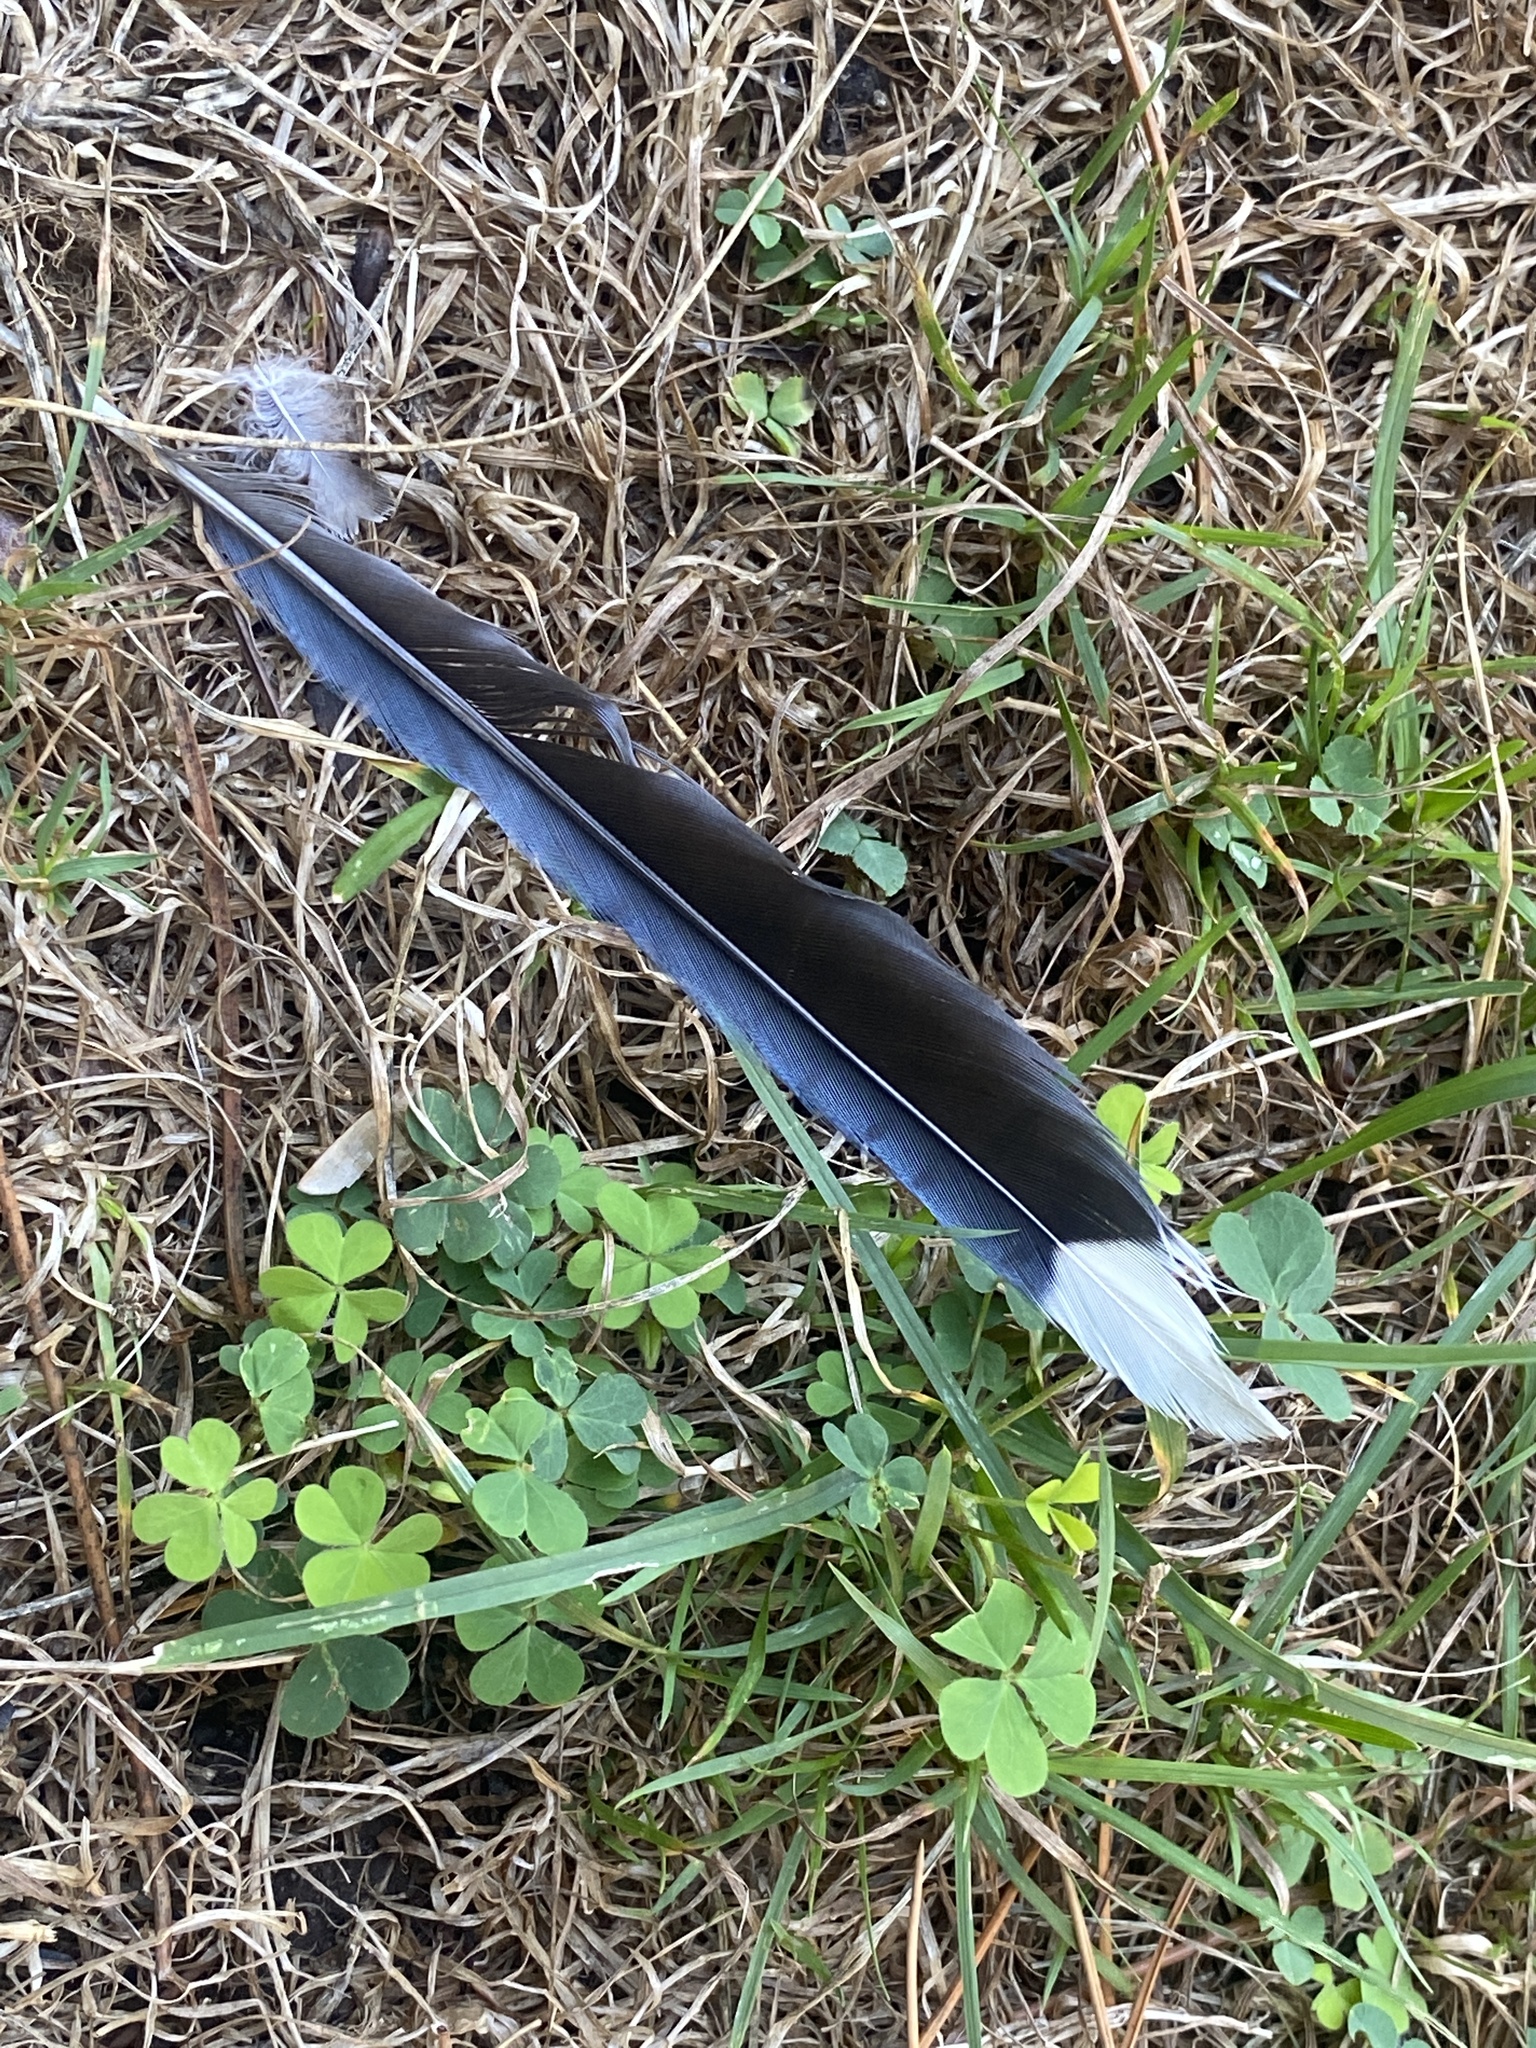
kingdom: Animalia
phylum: Chordata
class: Aves
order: Passeriformes
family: Corvidae
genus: Cyanocitta
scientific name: Cyanocitta cristata
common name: Blue jay
